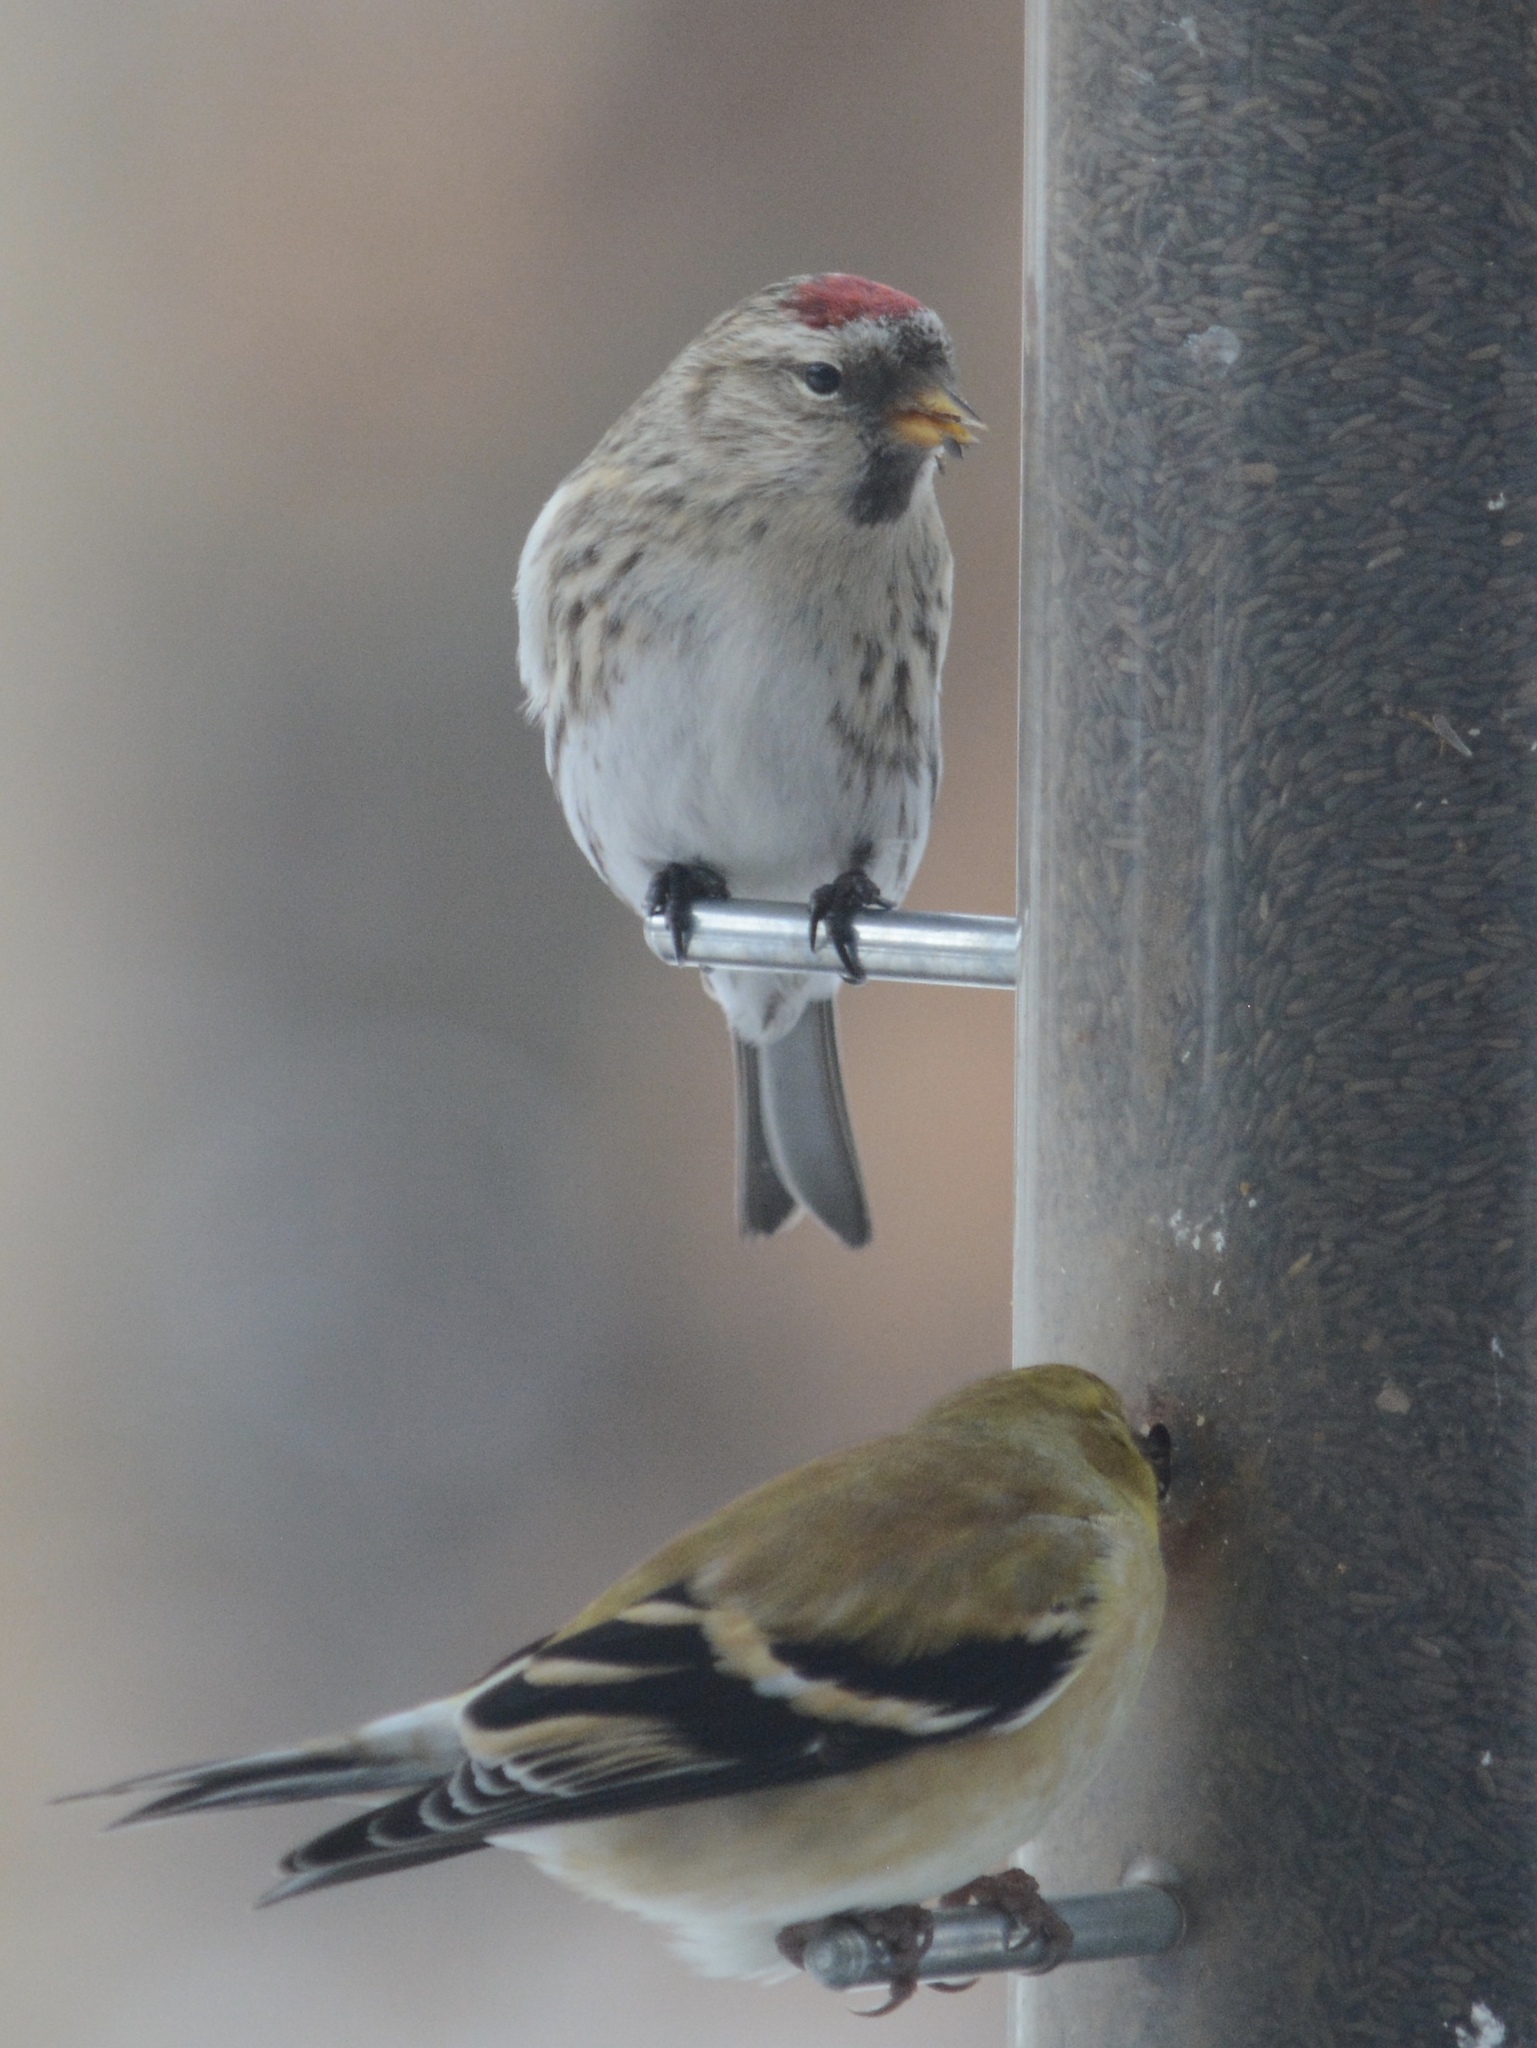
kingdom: Animalia
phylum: Chordata
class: Aves
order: Passeriformes
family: Fringillidae
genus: Acanthis
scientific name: Acanthis flammea
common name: Common redpoll
